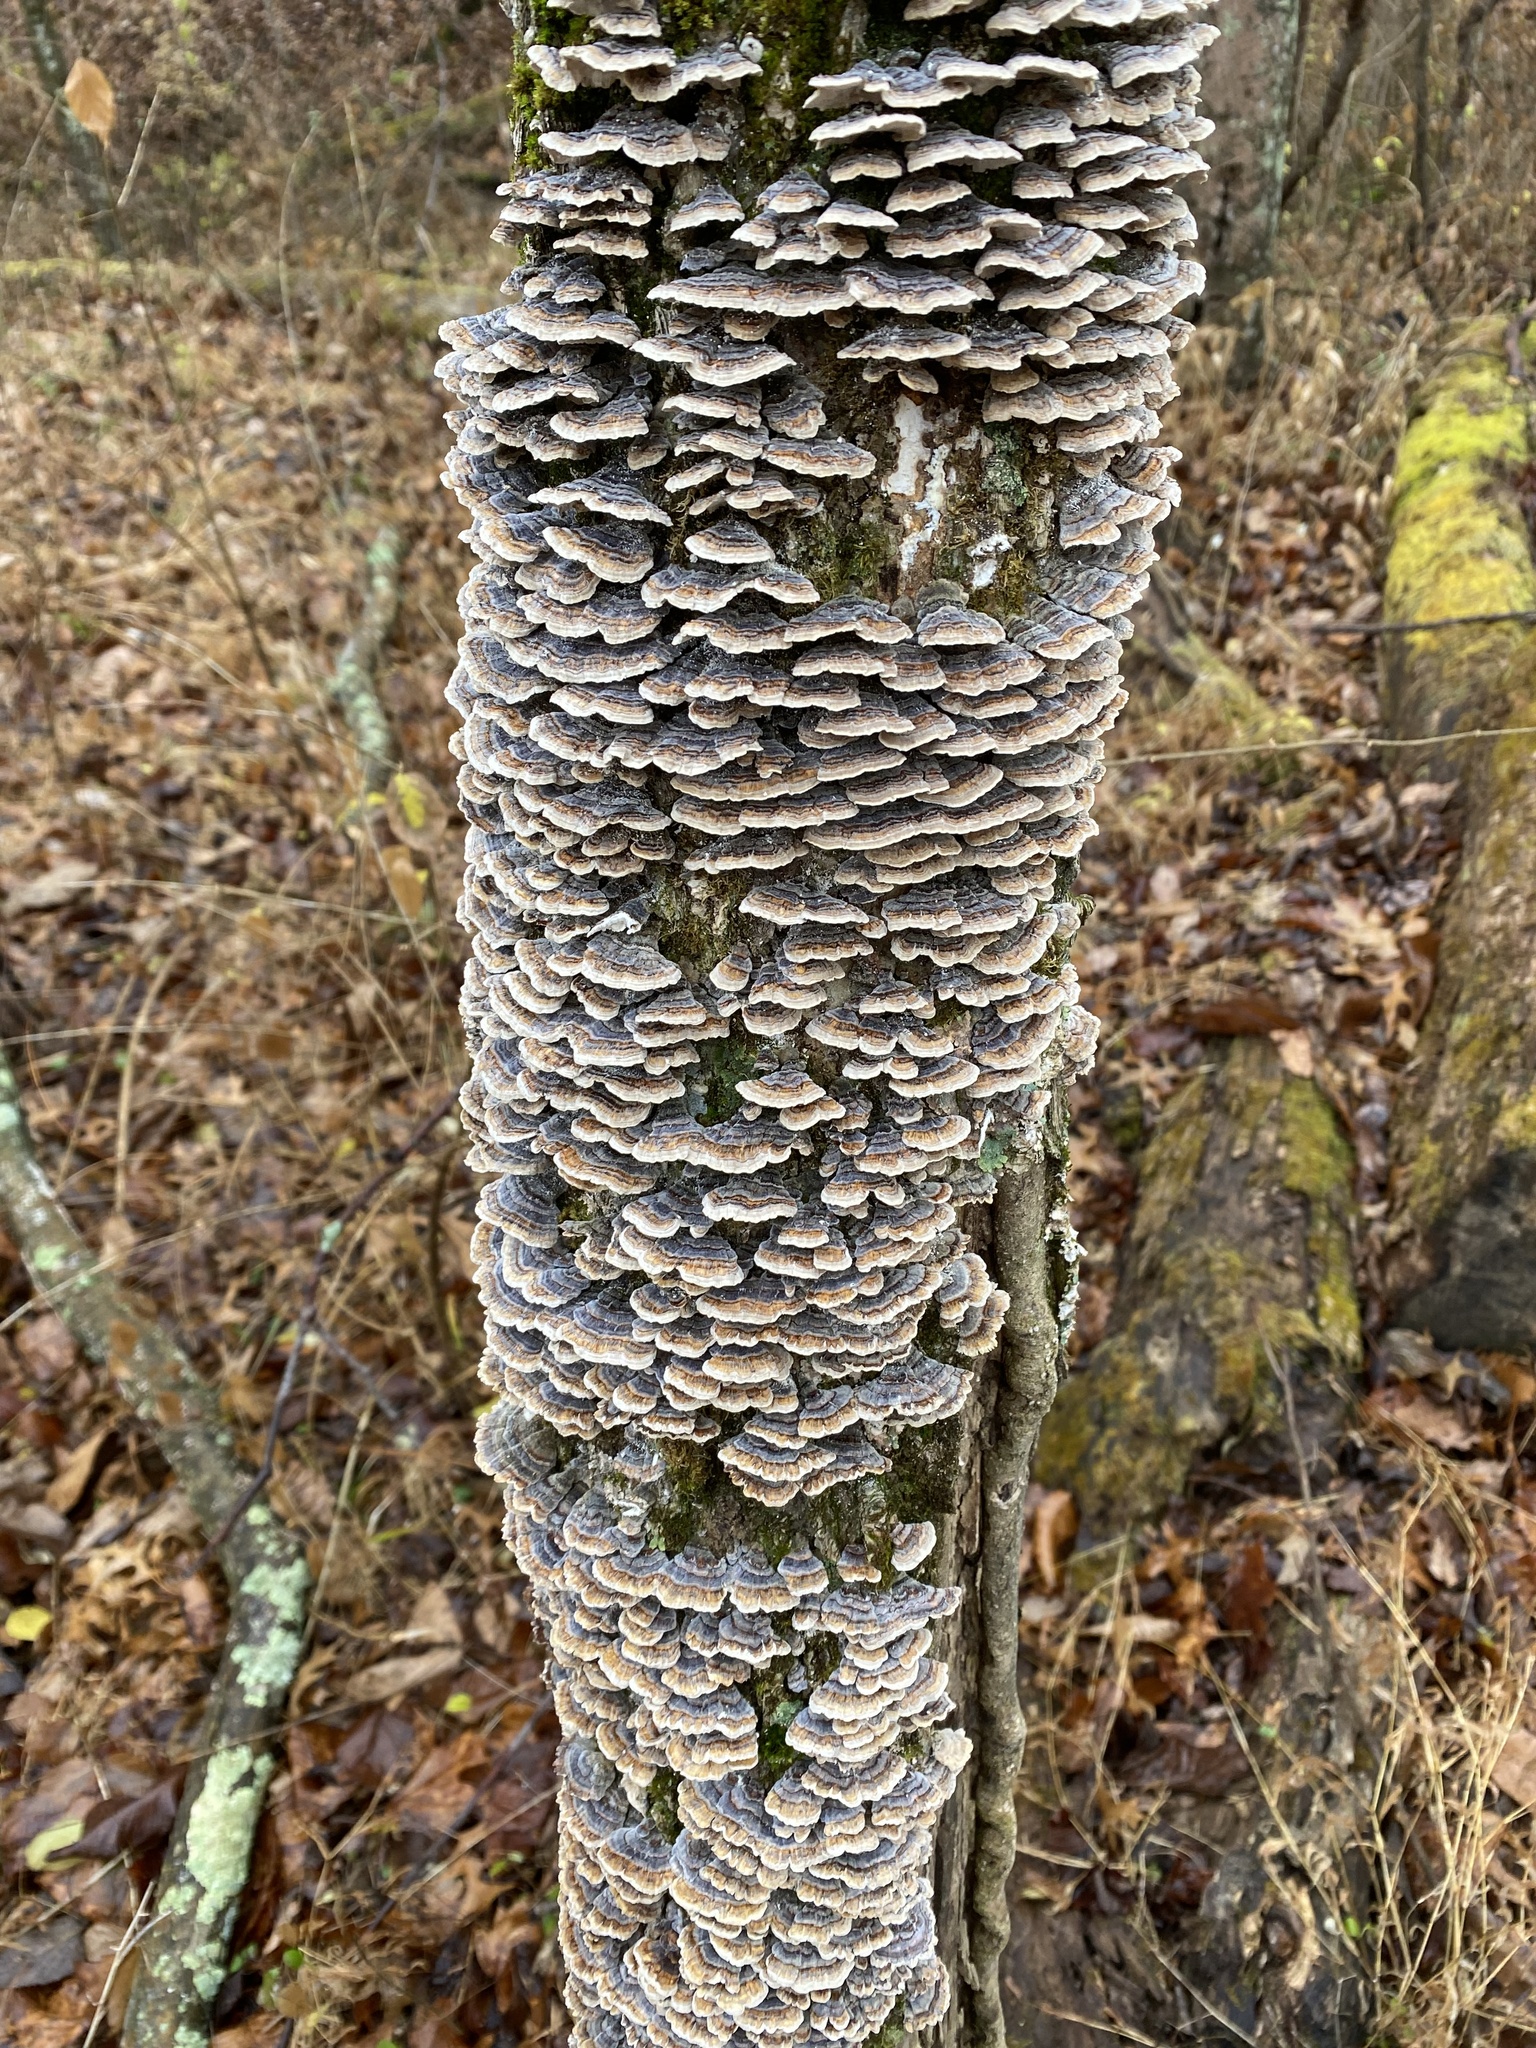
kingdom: Fungi
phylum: Basidiomycota
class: Agaricomycetes
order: Polyporales
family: Polyporaceae
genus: Trametes
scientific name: Trametes versicolor
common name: Turkeytail
